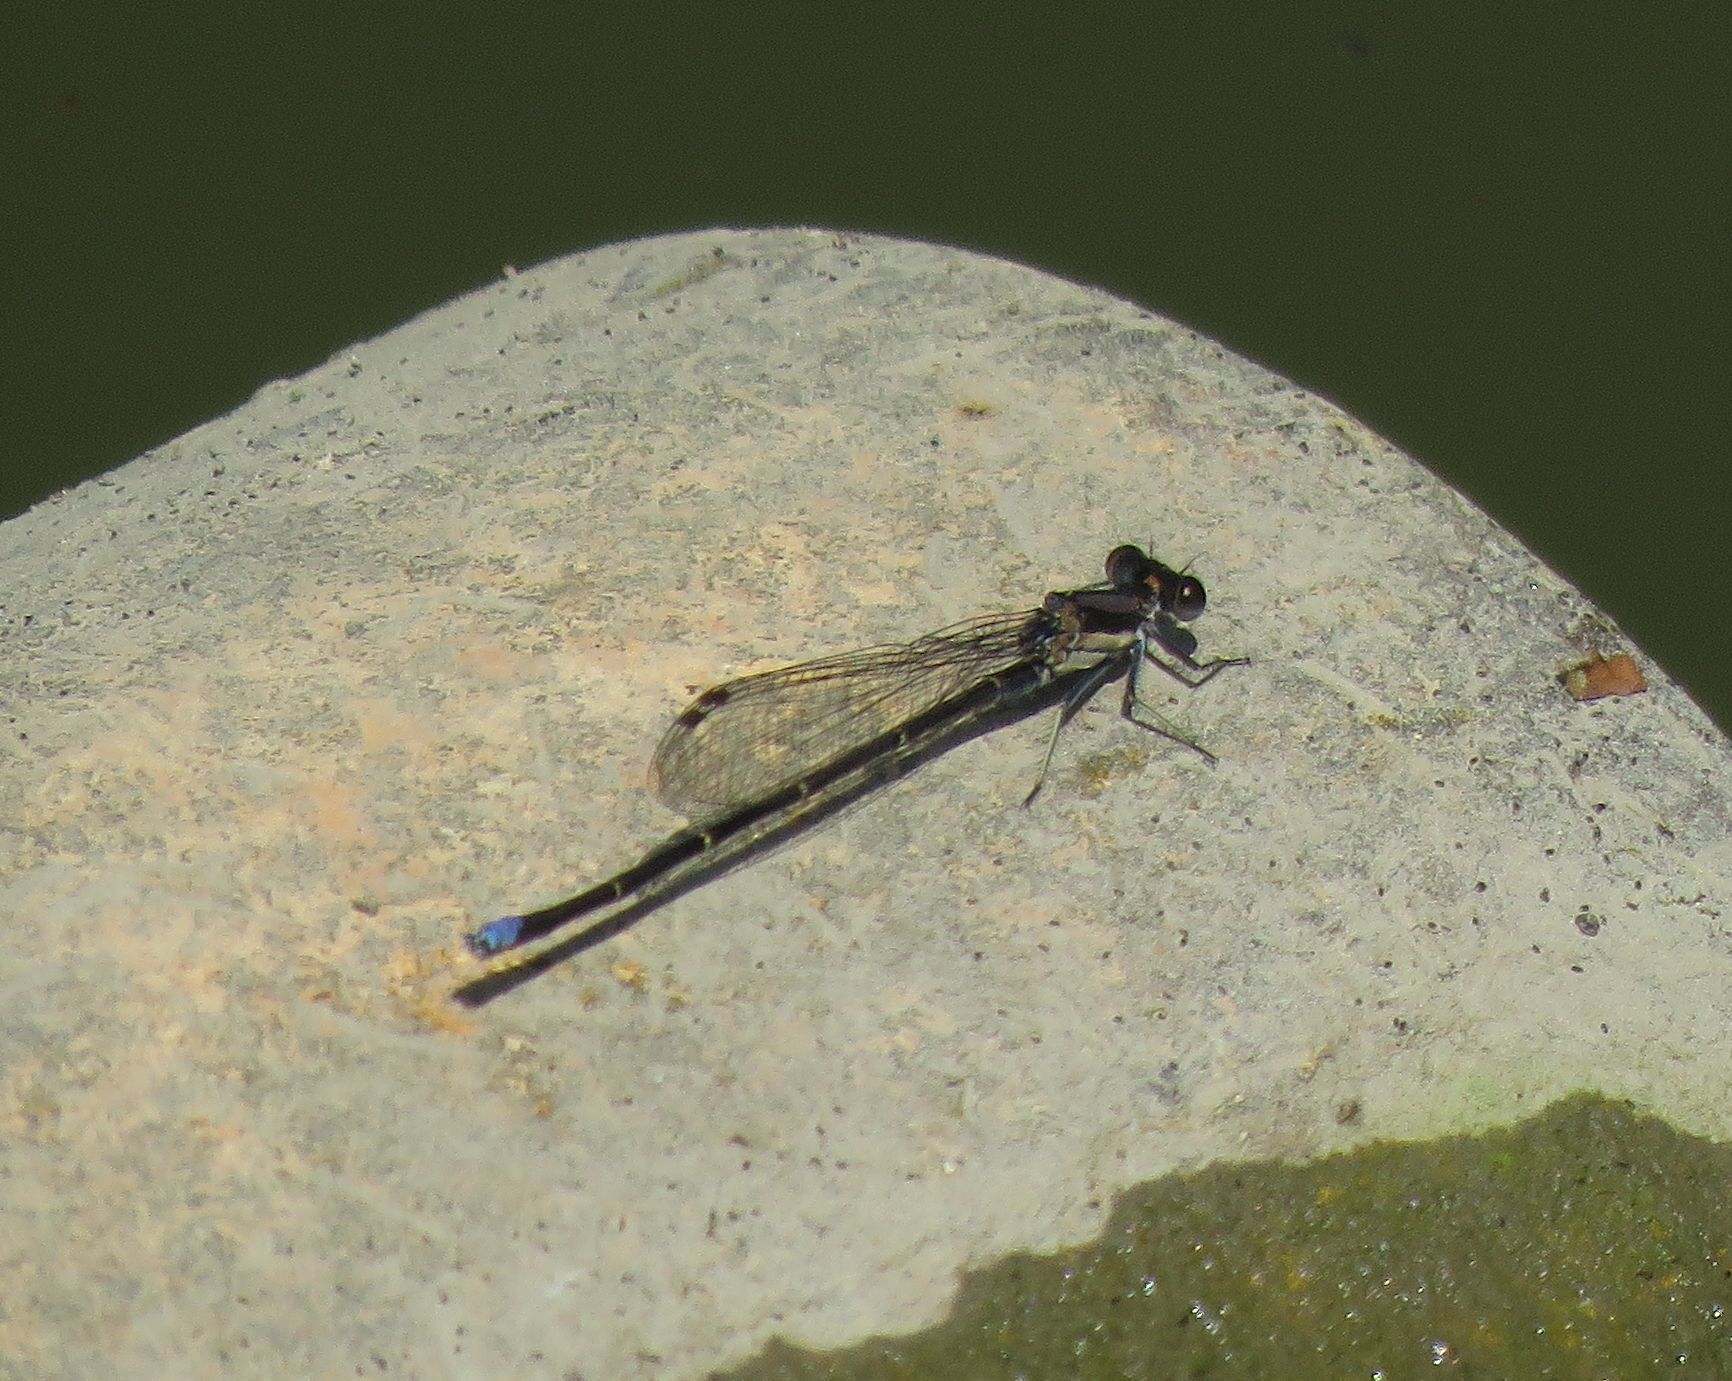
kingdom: Animalia
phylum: Arthropoda
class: Insecta
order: Odonata
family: Coenagrionidae
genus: Argia
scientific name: Argia tibialis
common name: Blue-tipped dancer
